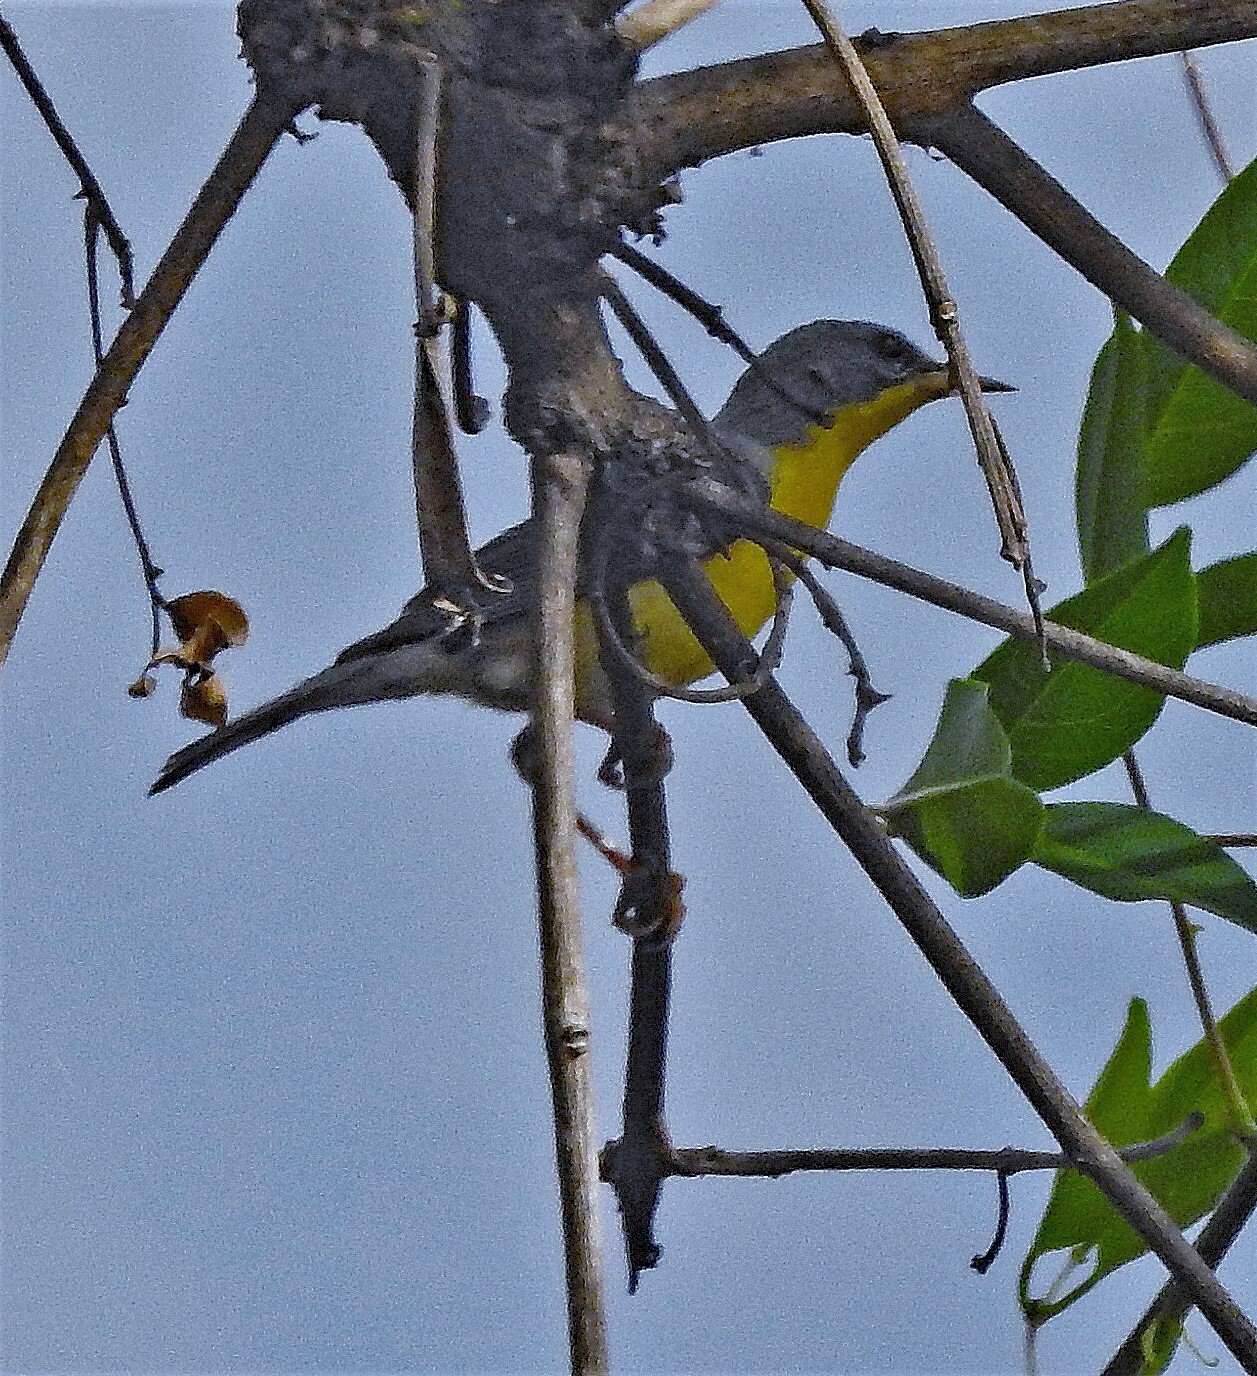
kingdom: Animalia
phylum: Chordata
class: Aves
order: Passeriformes
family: Parulidae
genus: Setophaga
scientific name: Setophaga pitiayumi
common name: Tropical parula
